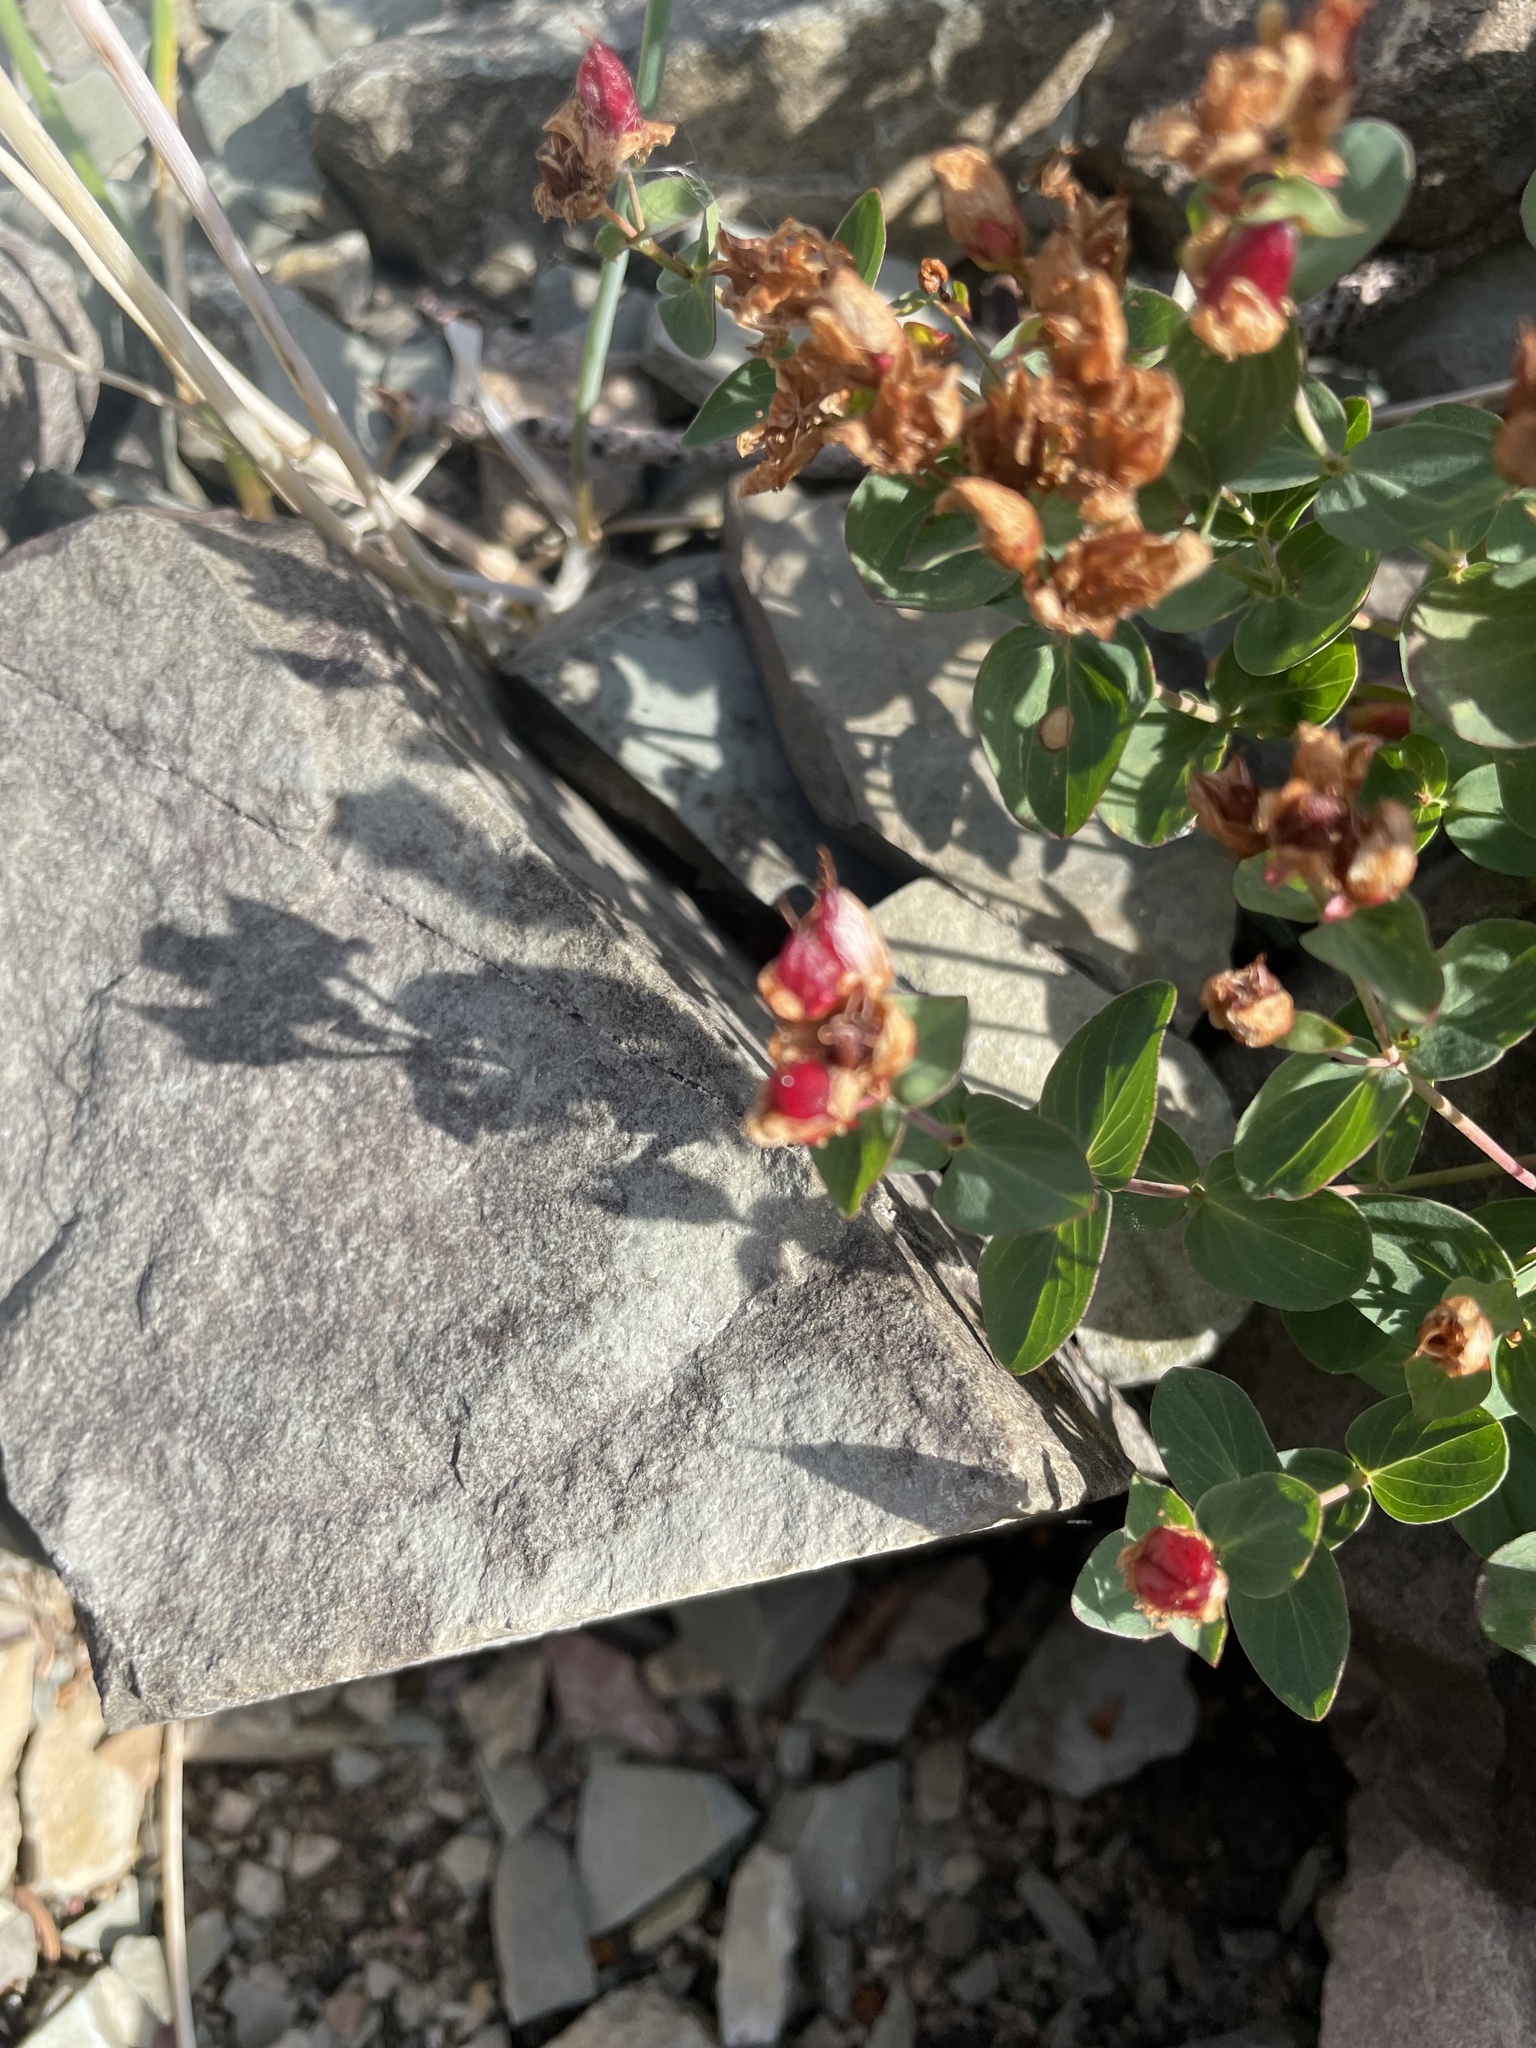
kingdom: Plantae
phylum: Tracheophyta
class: Magnoliopsida
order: Malpighiales
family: Hypericaceae
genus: Hypericum
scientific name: Hypericum scouleri
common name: Scouler's st. john's-wort
